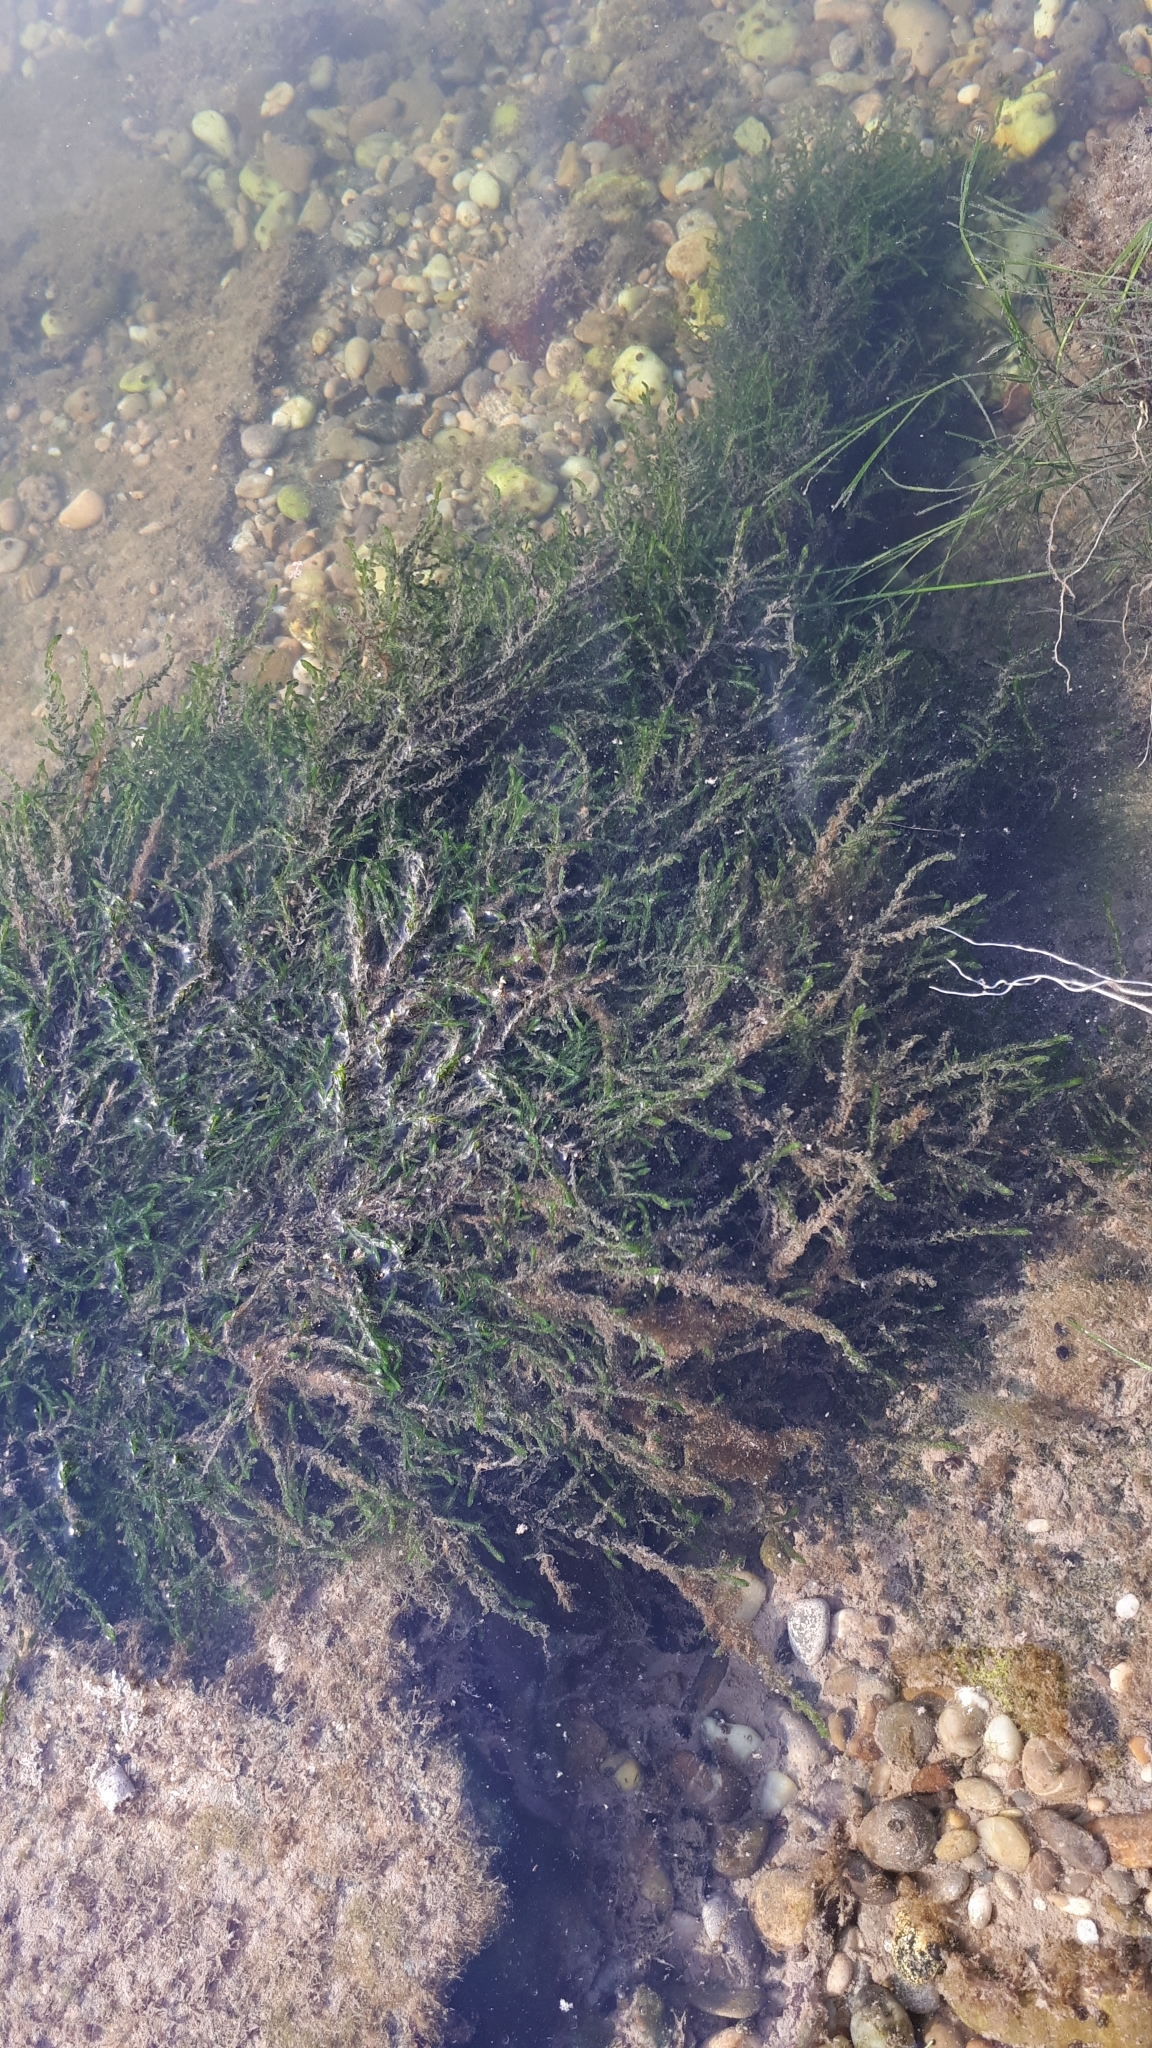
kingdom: Plantae
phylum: Bryophyta
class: Bryopsida
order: Hypnales
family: Fontinalaceae
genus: Fontinalis
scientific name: Fontinalis antipyretica
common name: Greater water-moss
